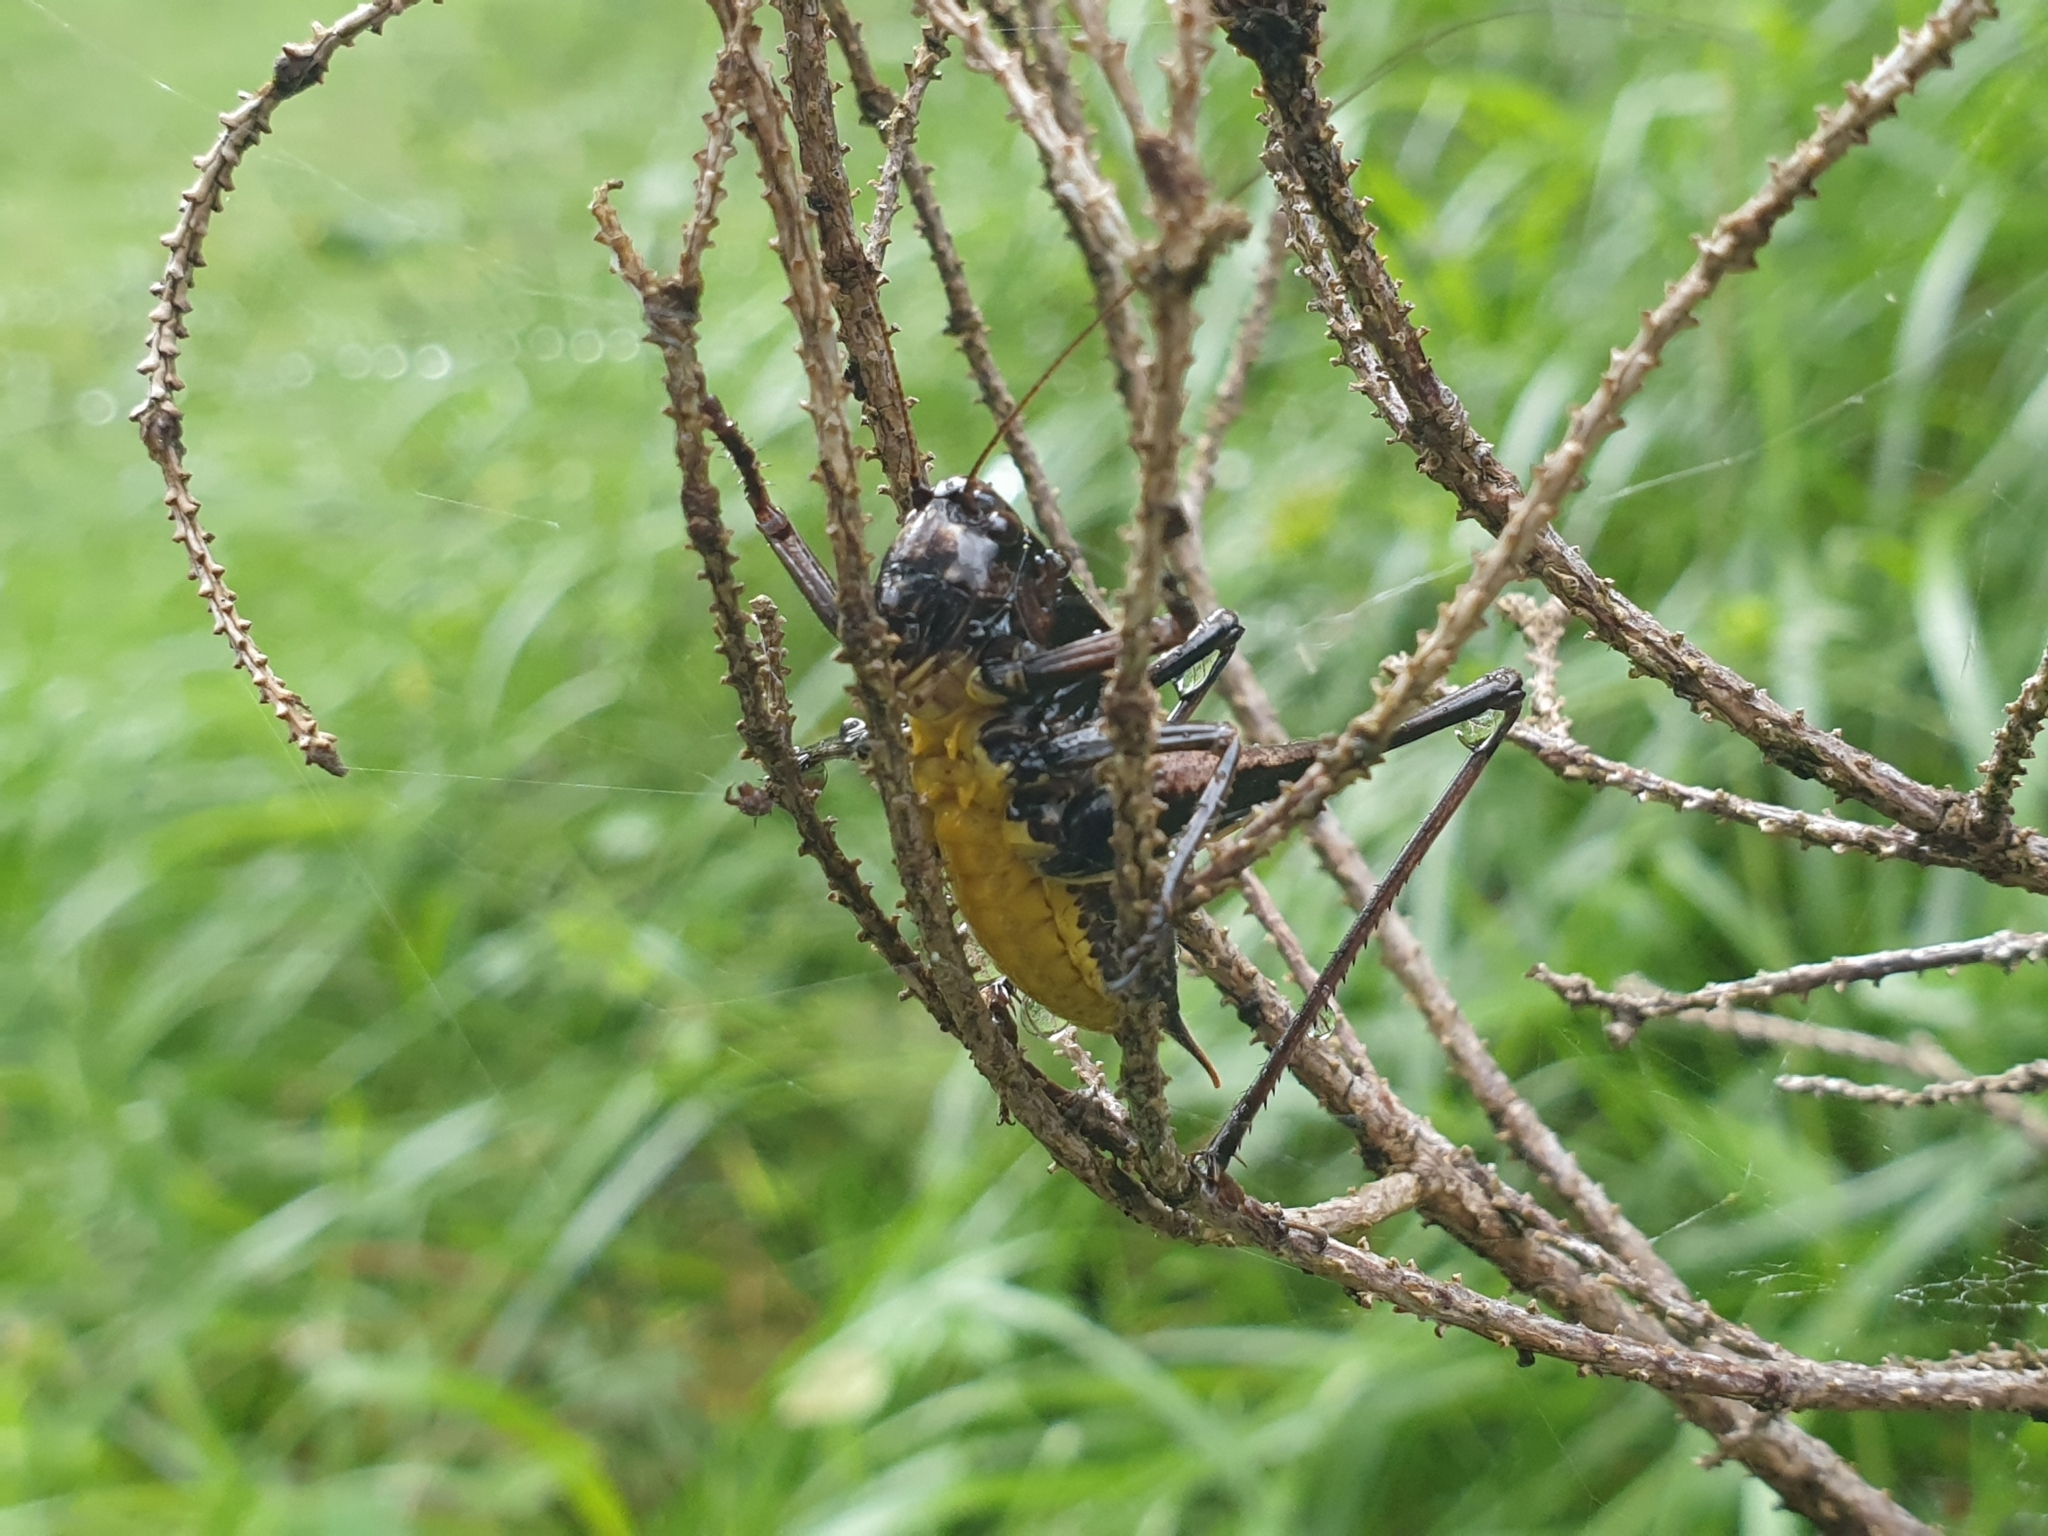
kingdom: Animalia
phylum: Arthropoda
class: Insecta
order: Orthoptera
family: Tettigoniidae
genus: Pholidoptera
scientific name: Pholidoptera aptera
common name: Alpine dark bush-cricket
